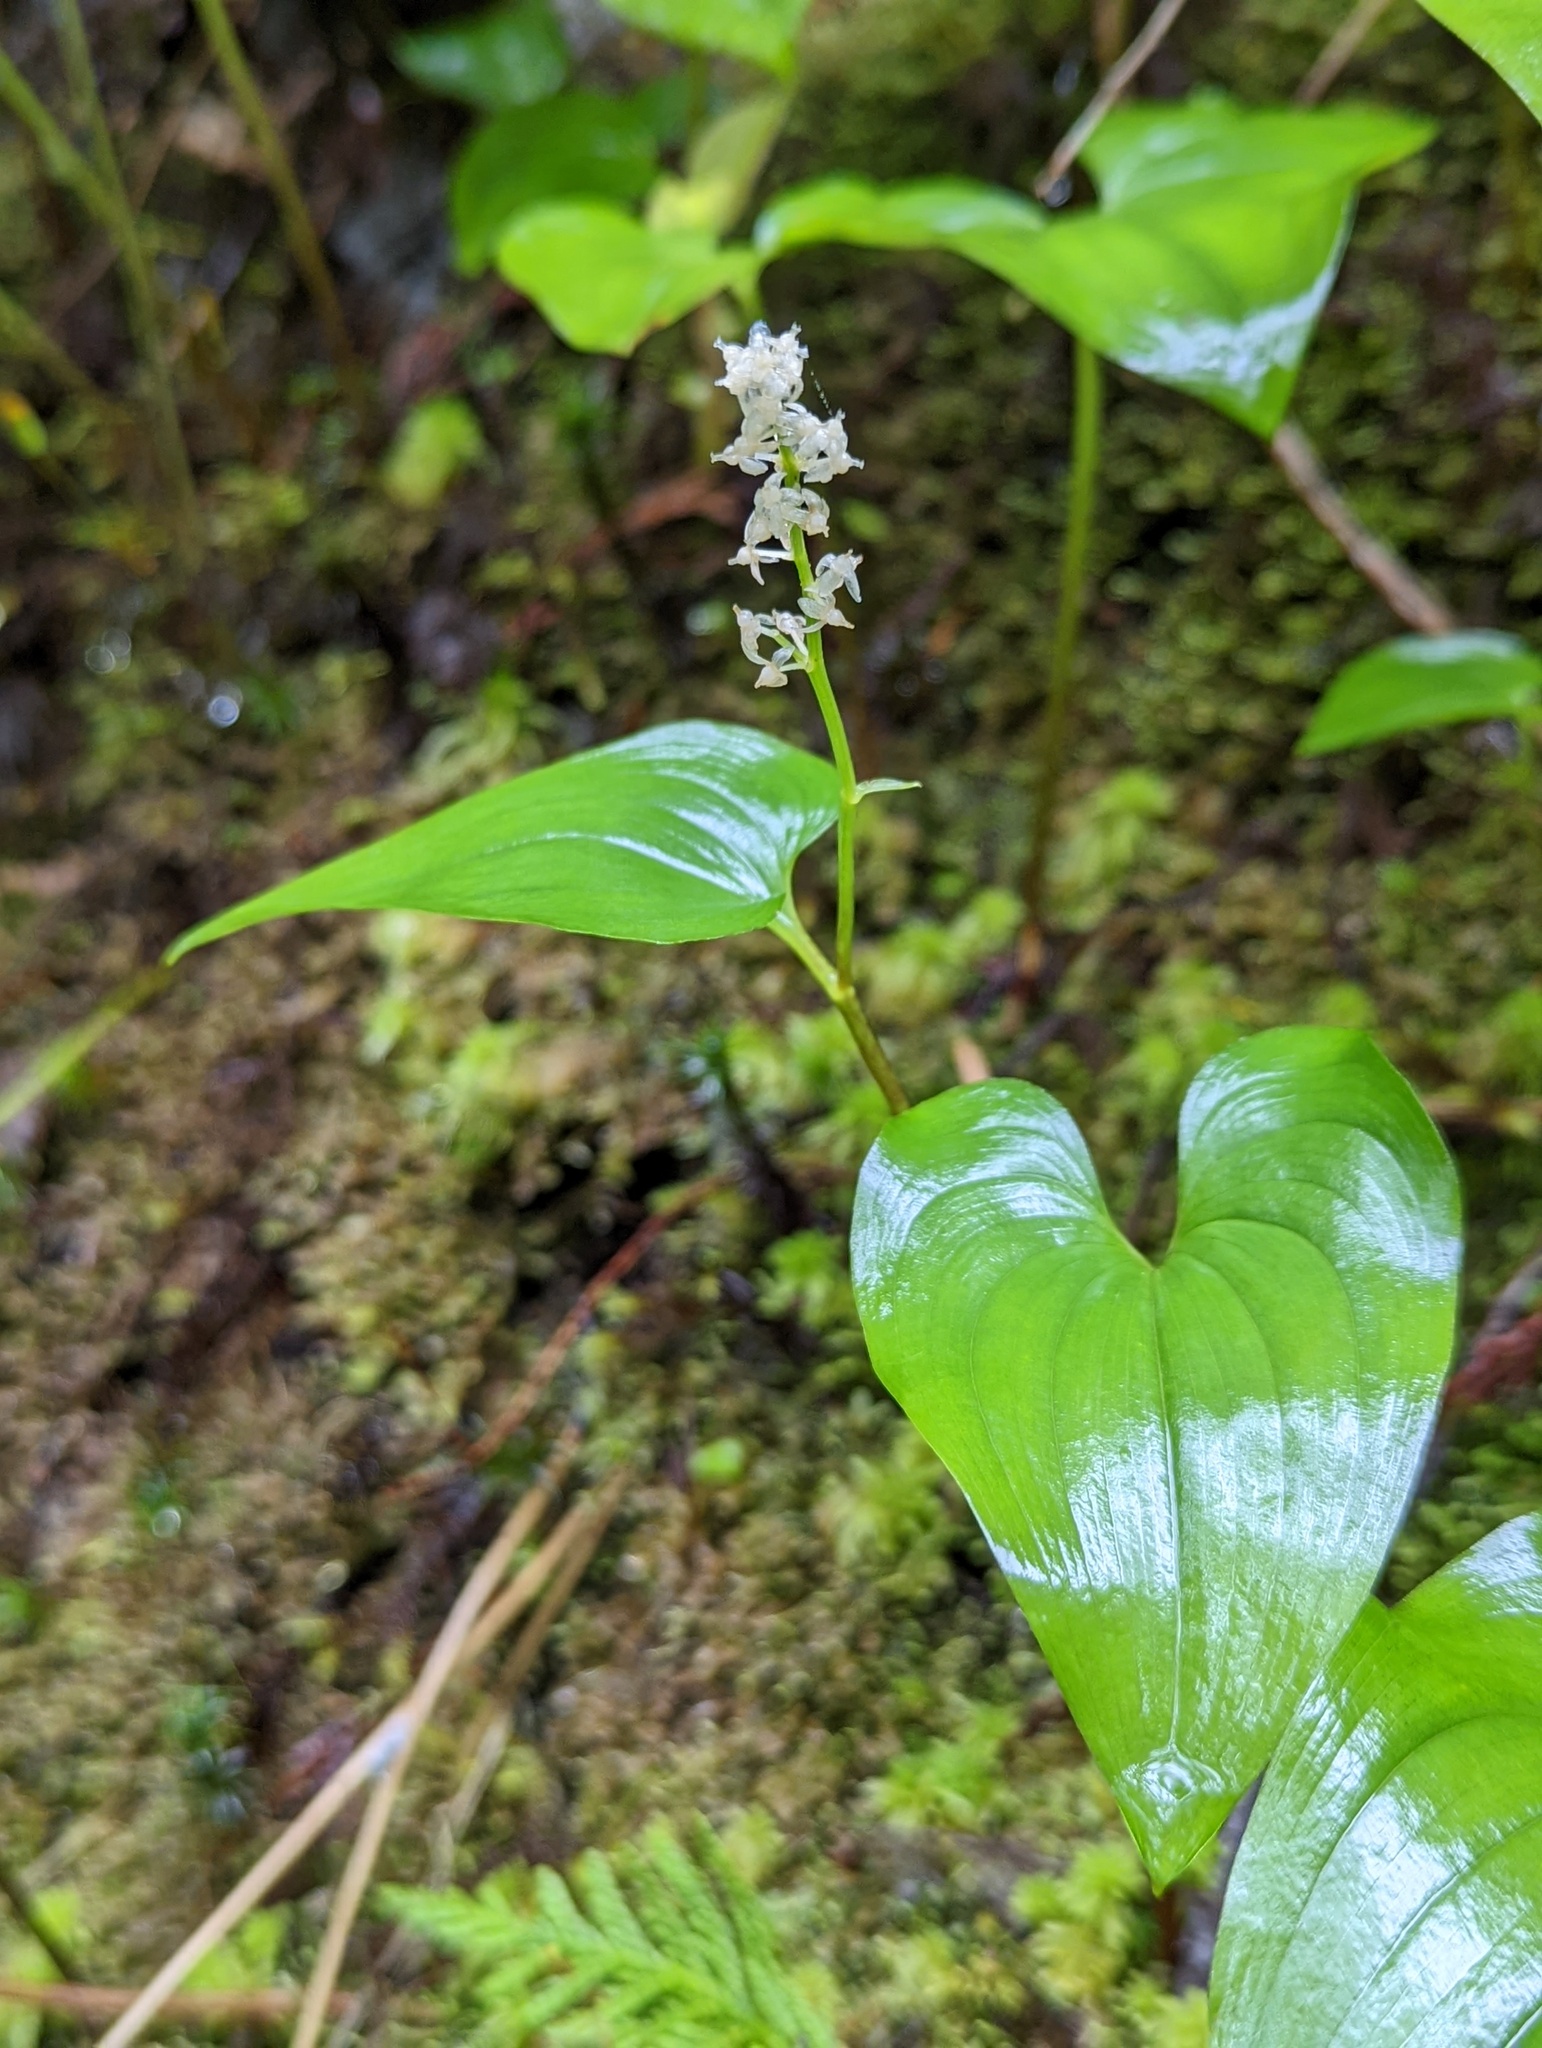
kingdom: Plantae
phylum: Tracheophyta
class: Liliopsida
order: Asparagales
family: Asparagaceae
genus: Maianthemum
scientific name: Maianthemum dilatatum
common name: False lily-of-the-valley
